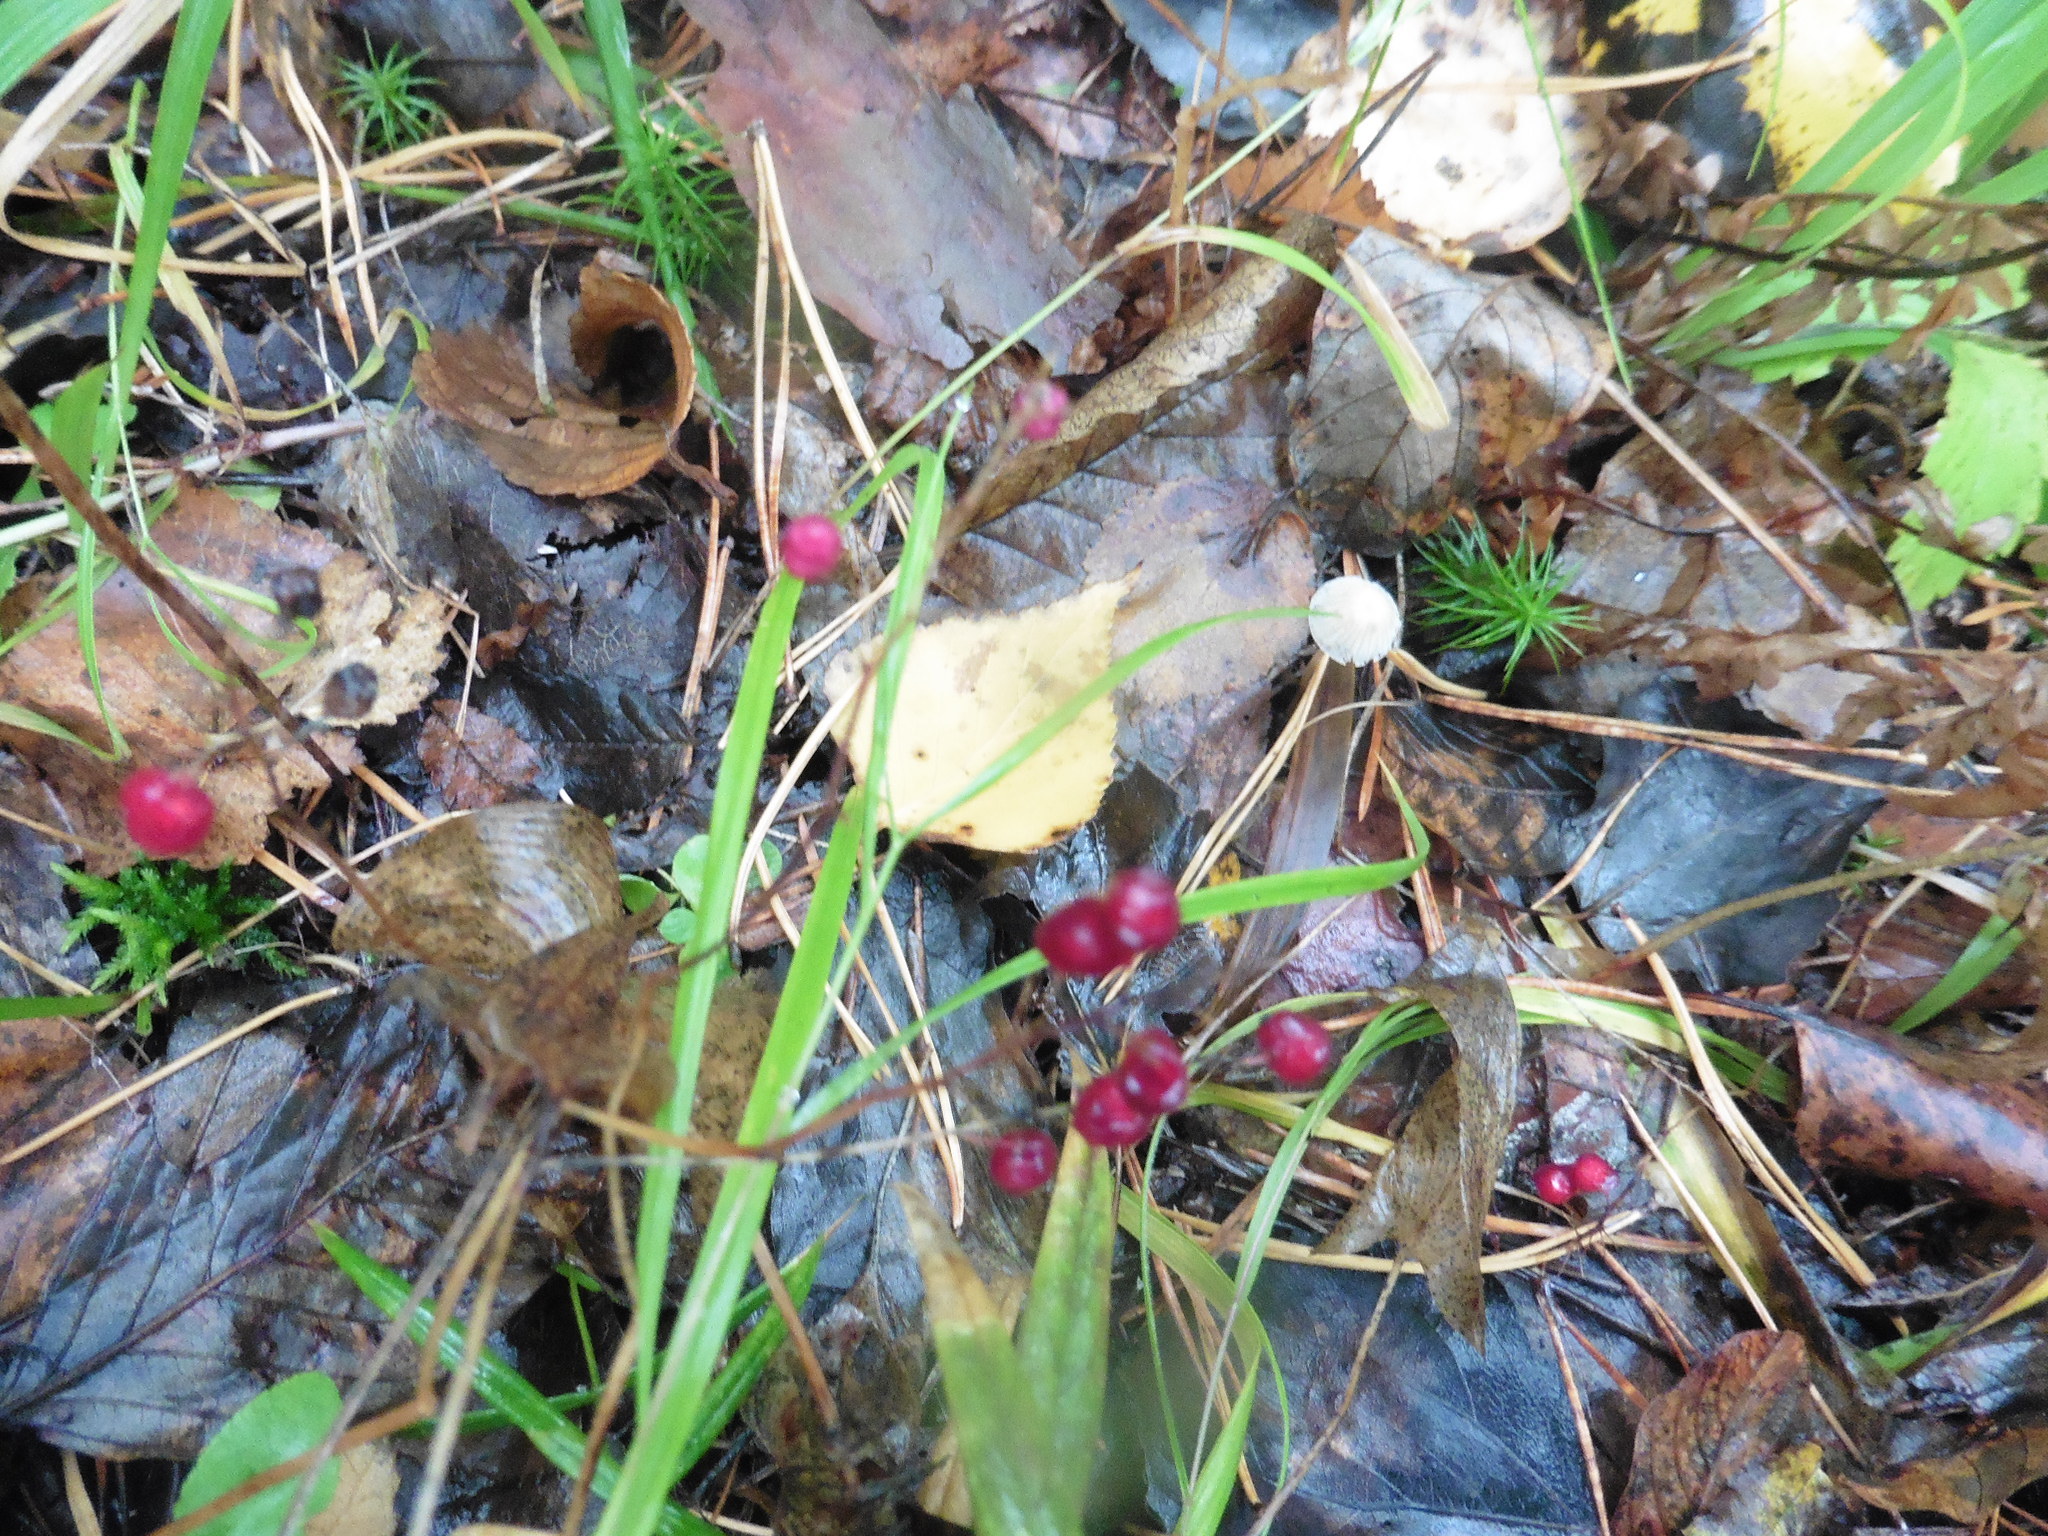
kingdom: Plantae
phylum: Tracheophyta
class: Liliopsida
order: Asparagales
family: Asparagaceae
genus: Maianthemum
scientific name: Maianthemum bifolium
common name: May lily
